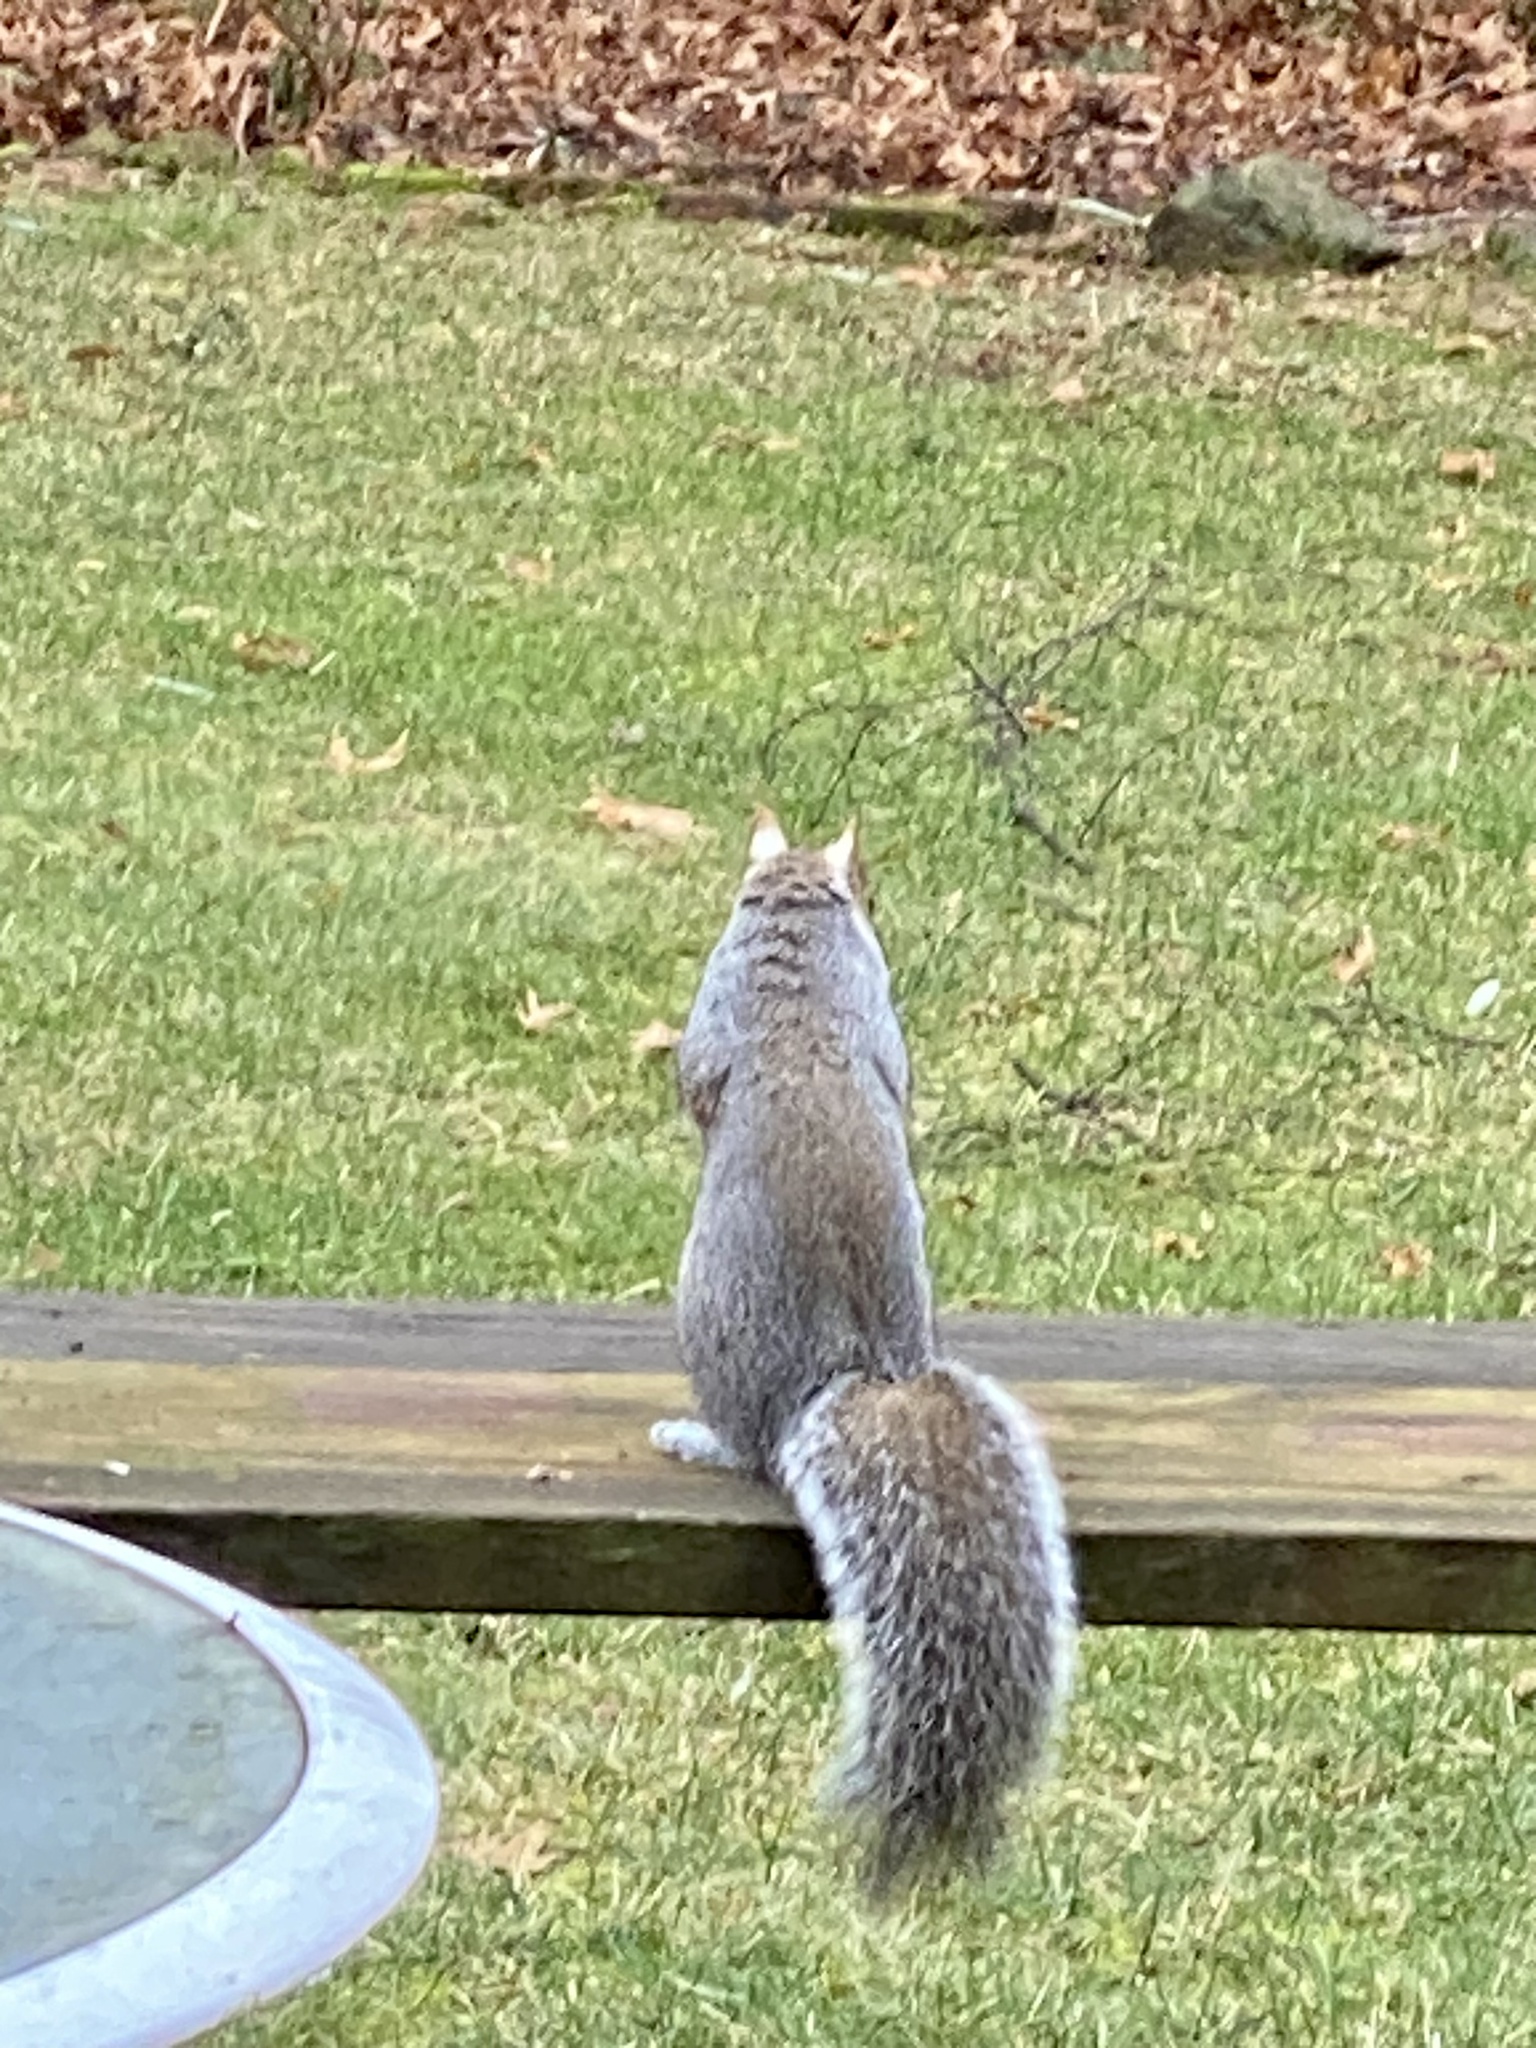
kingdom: Animalia
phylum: Chordata
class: Mammalia
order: Rodentia
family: Sciuridae
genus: Sciurus
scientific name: Sciurus carolinensis
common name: Eastern gray squirrel
